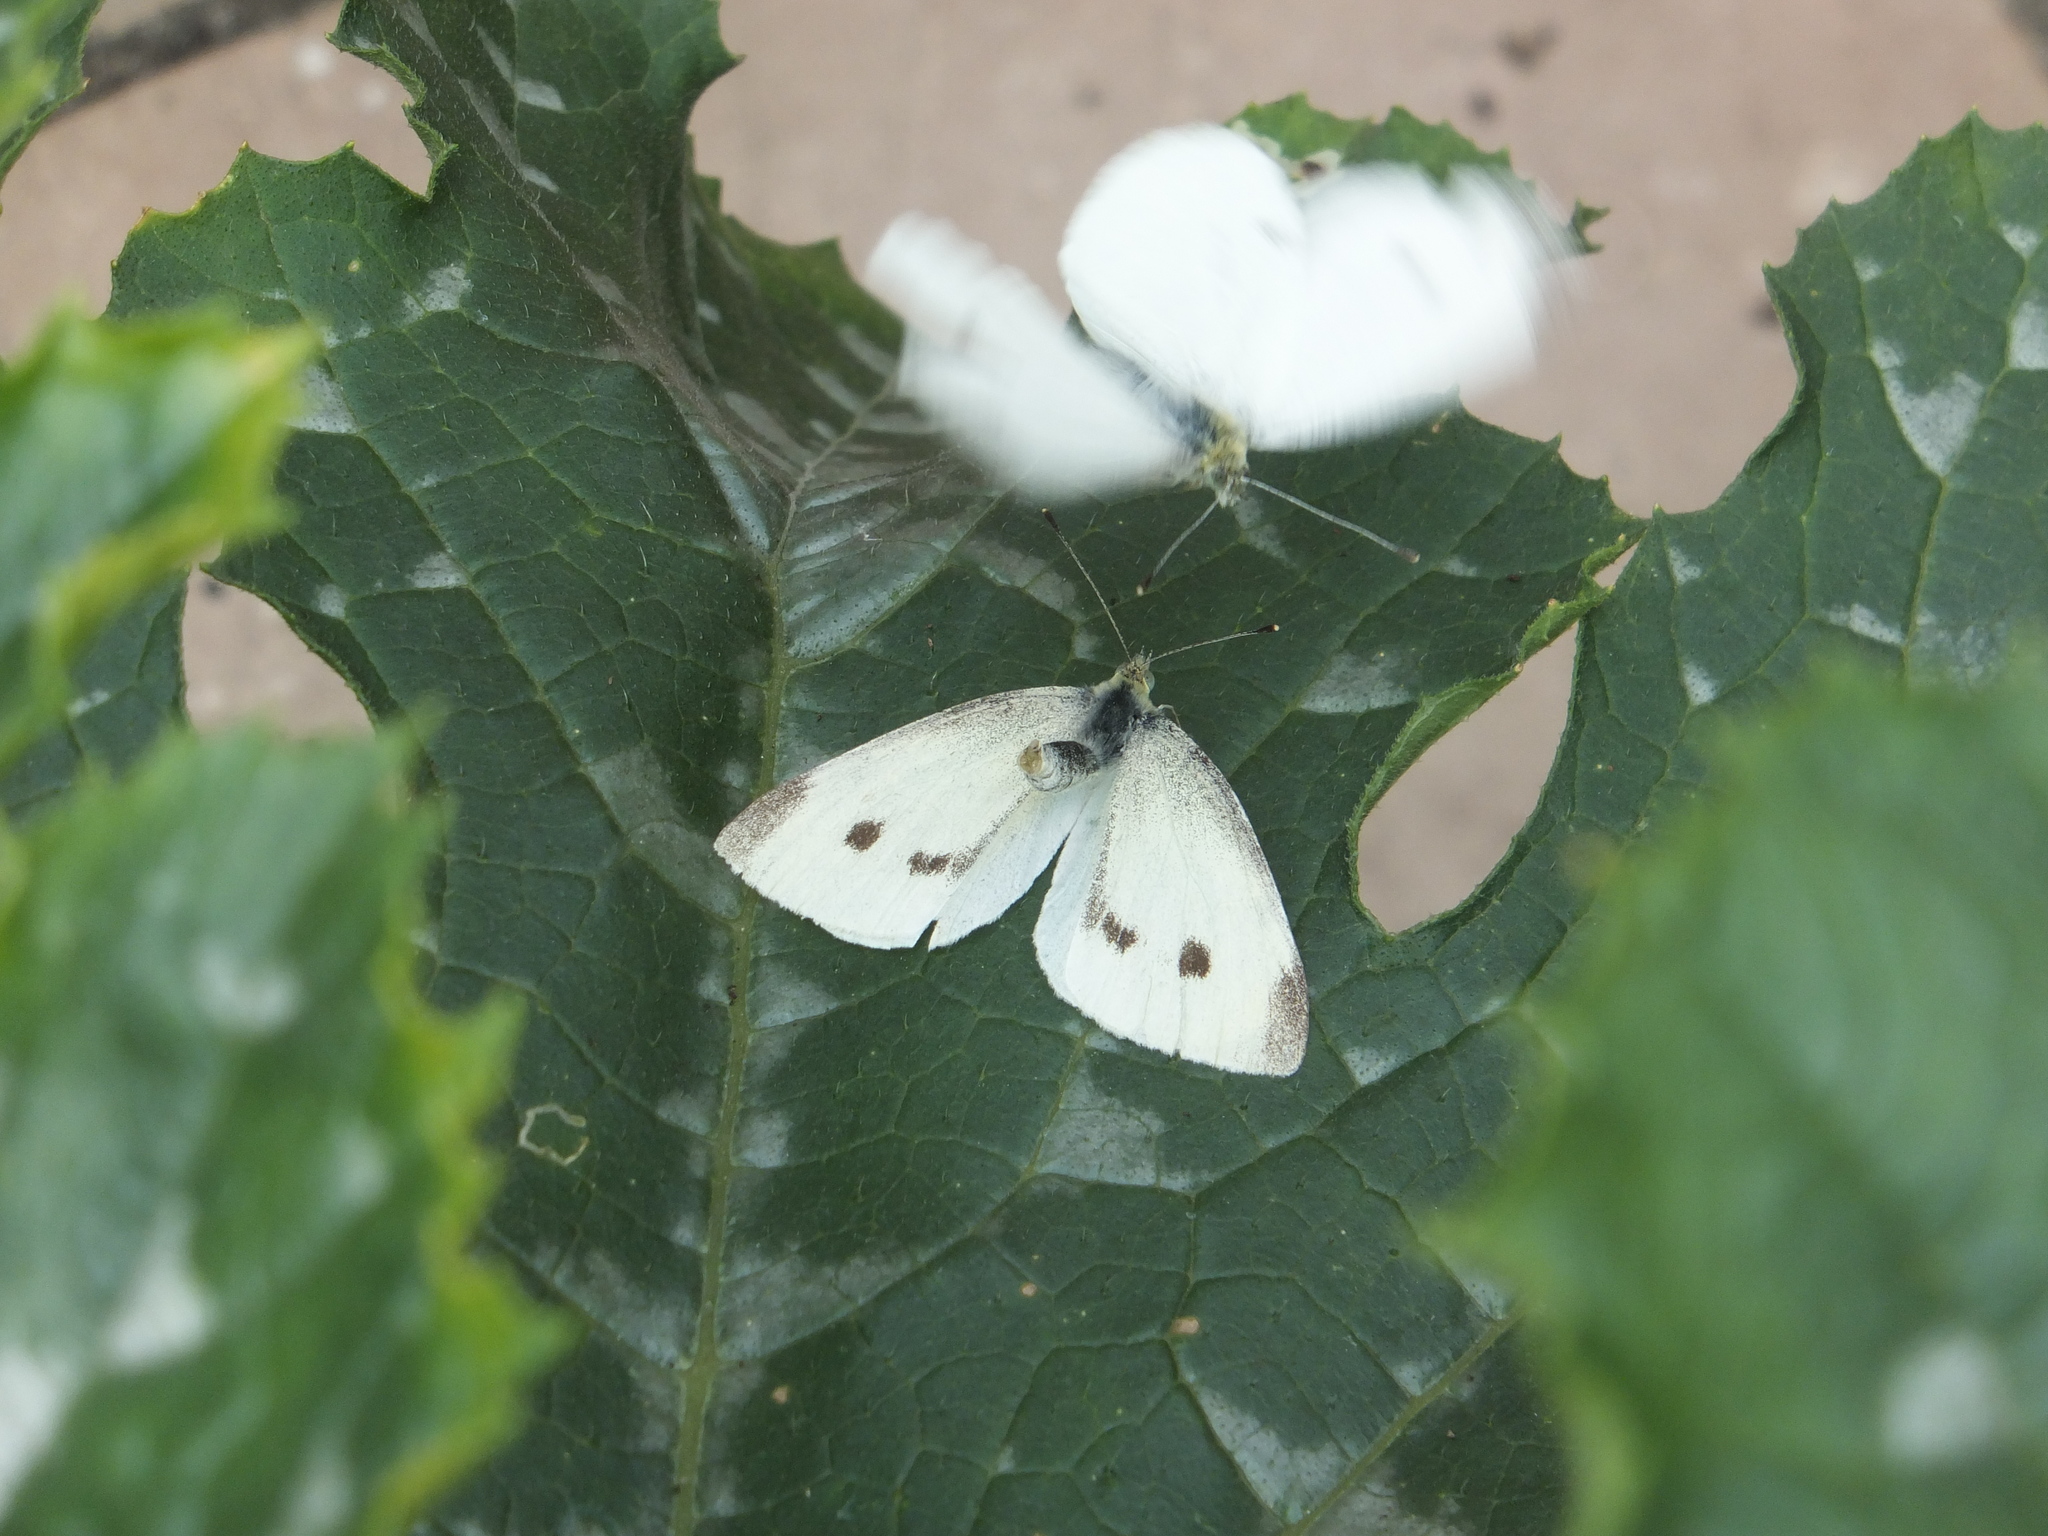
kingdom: Animalia
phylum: Arthropoda
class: Insecta
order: Lepidoptera
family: Pieridae
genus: Pieris
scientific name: Pieris rapae
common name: Small white
